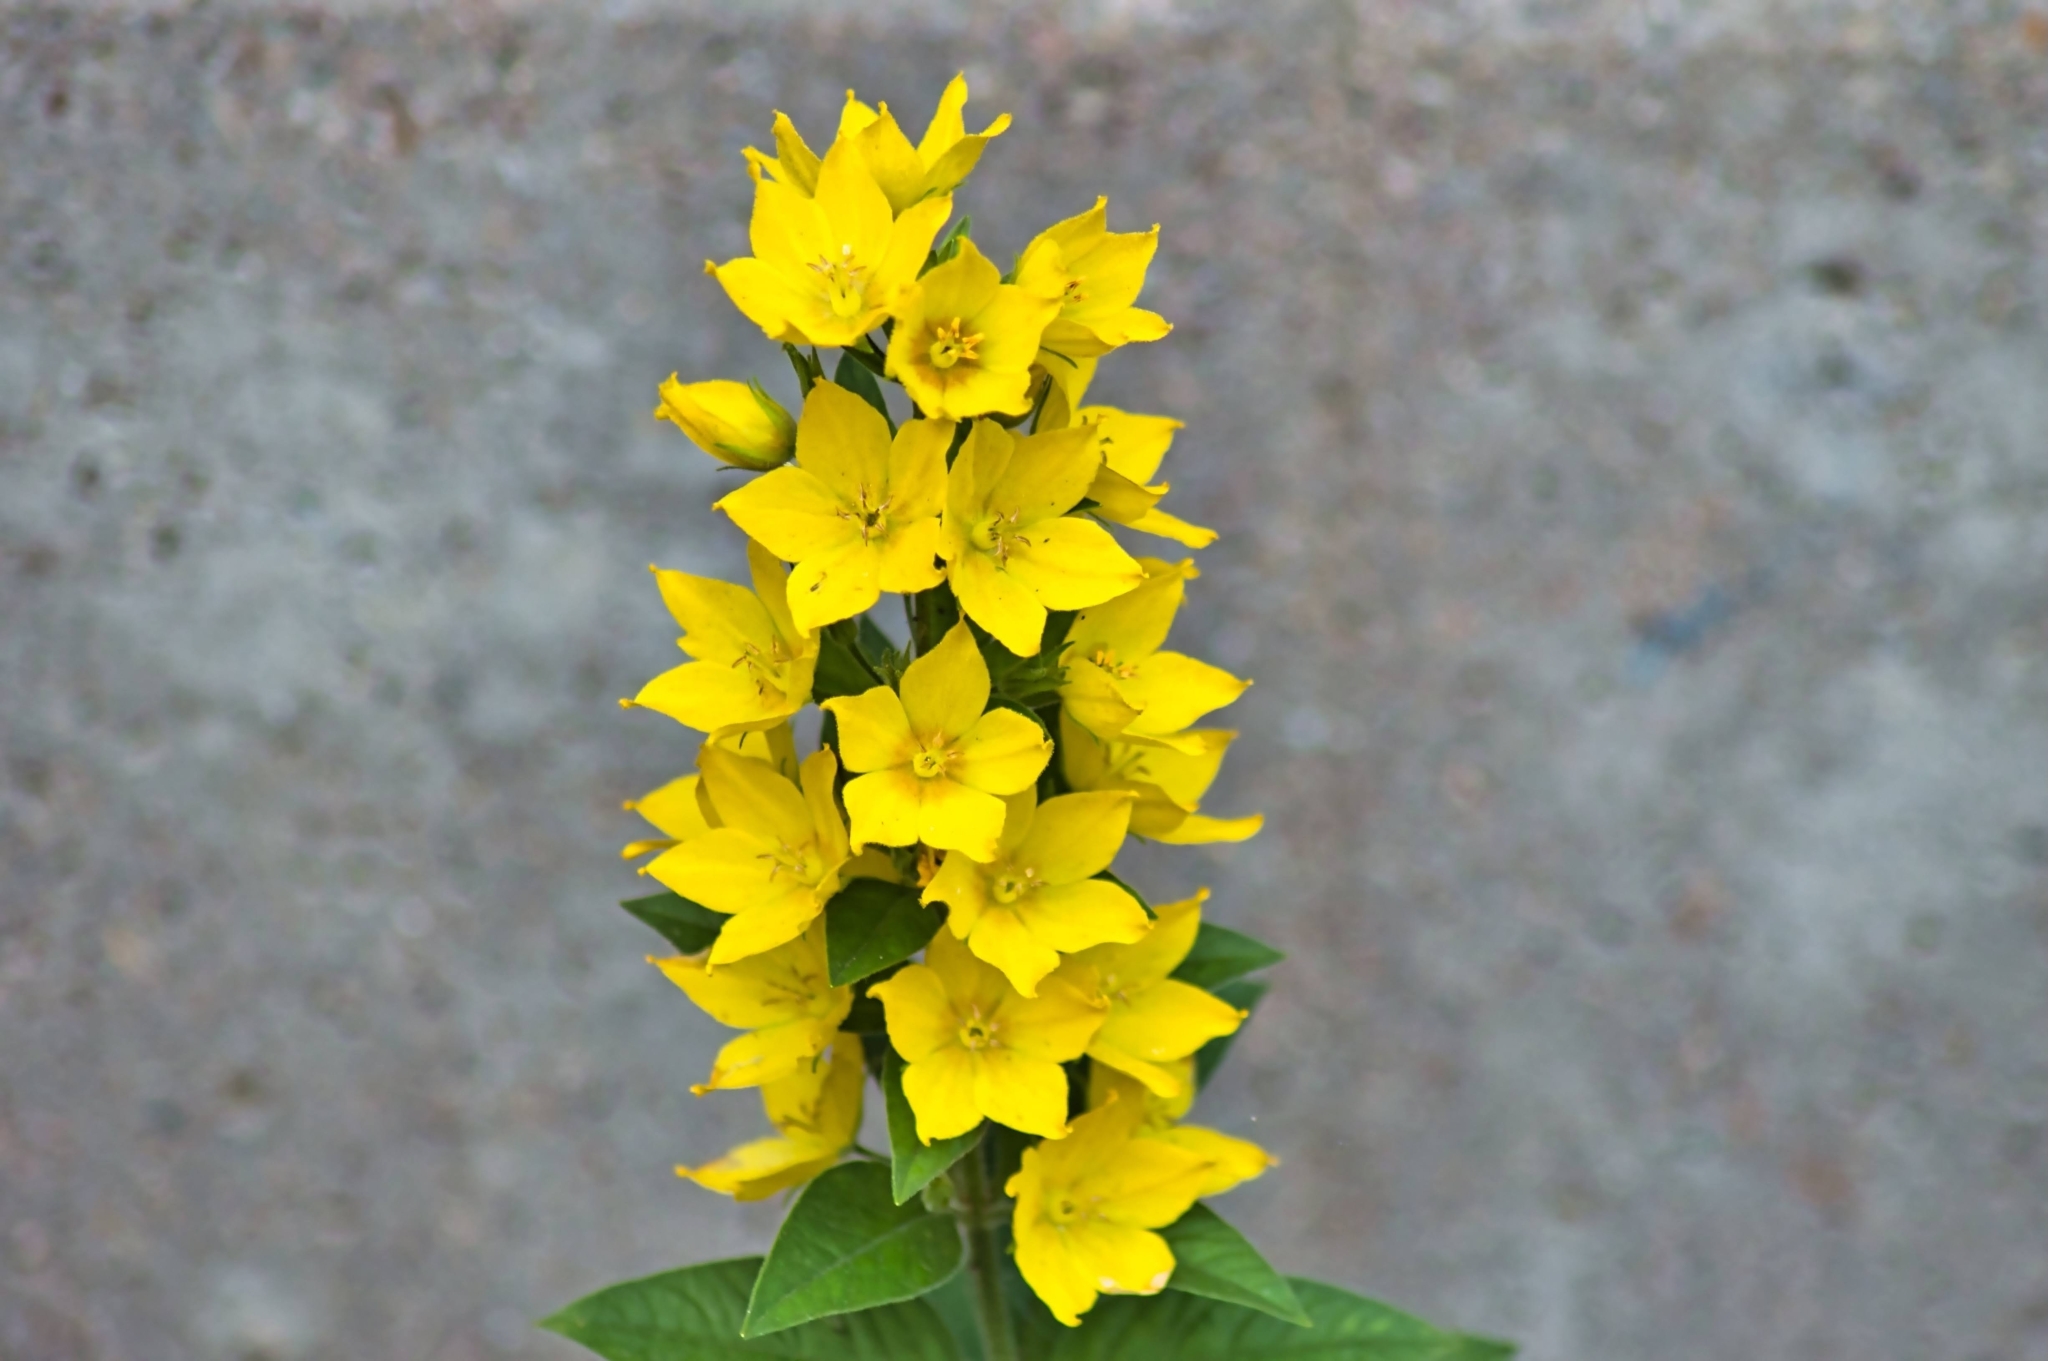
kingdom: Plantae
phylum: Tracheophyta
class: Magnoliopsida
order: Ericales
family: Primulaceae
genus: Lysimachia
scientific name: Lysimachia punctata
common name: Dotted loosestrife
